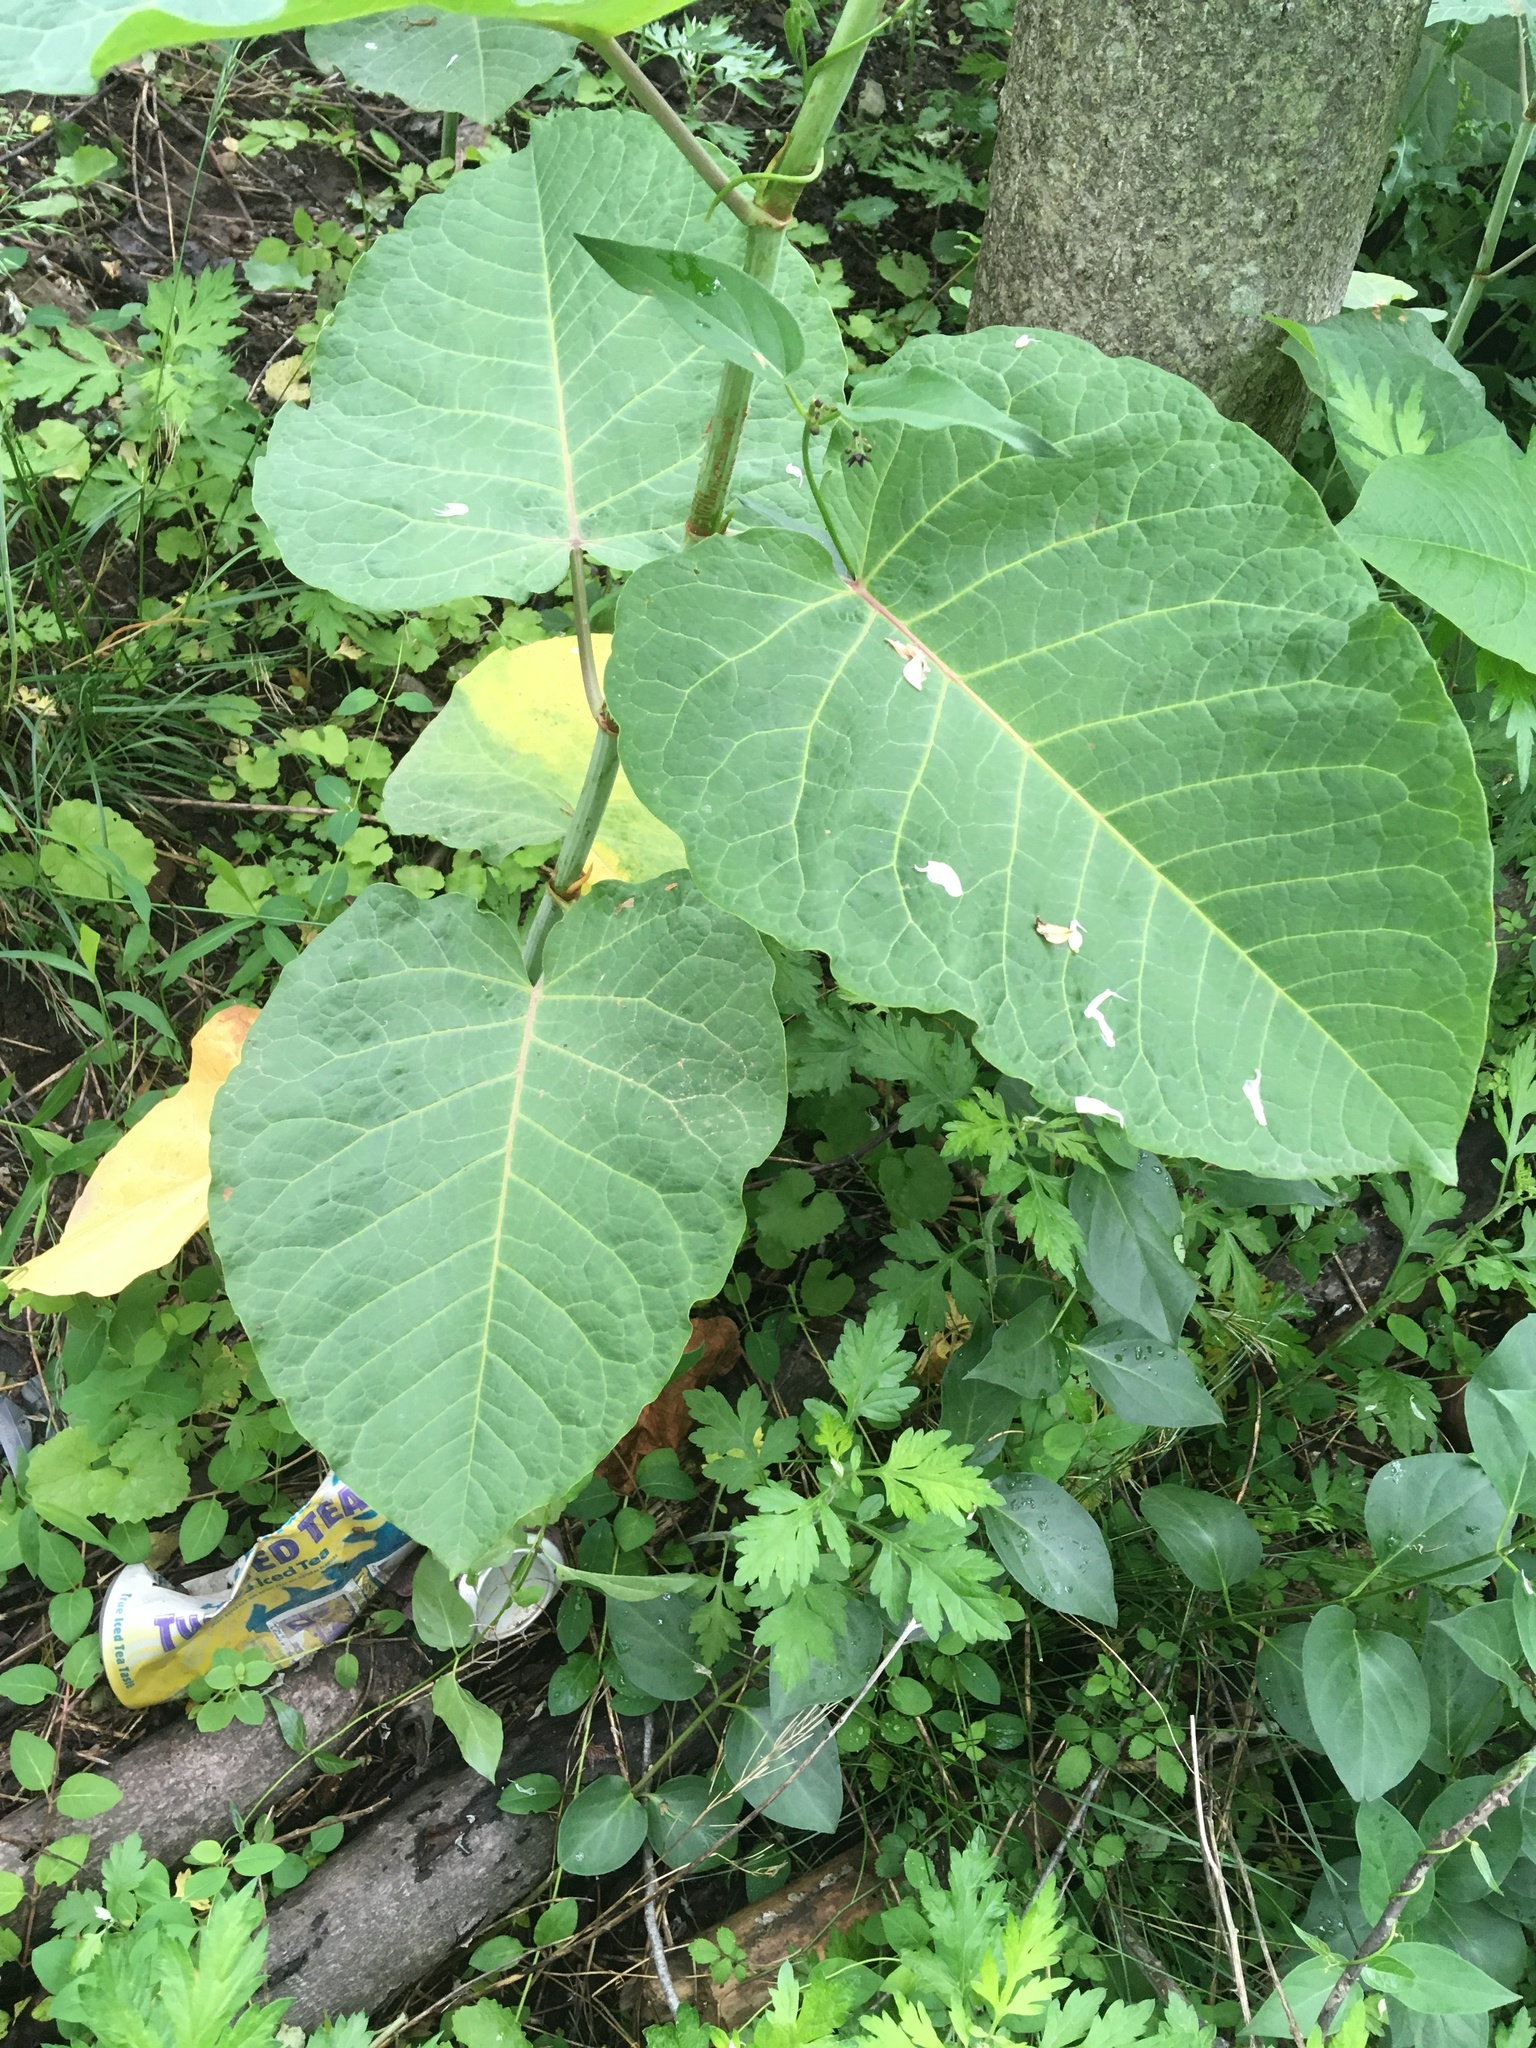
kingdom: Plantae
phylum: Tracheophyta
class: Magnoliopsida
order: Caryophyllales
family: Polygonaceae
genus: Reynoutria
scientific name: Reynoutria sachalinensis
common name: Giant knotweed
